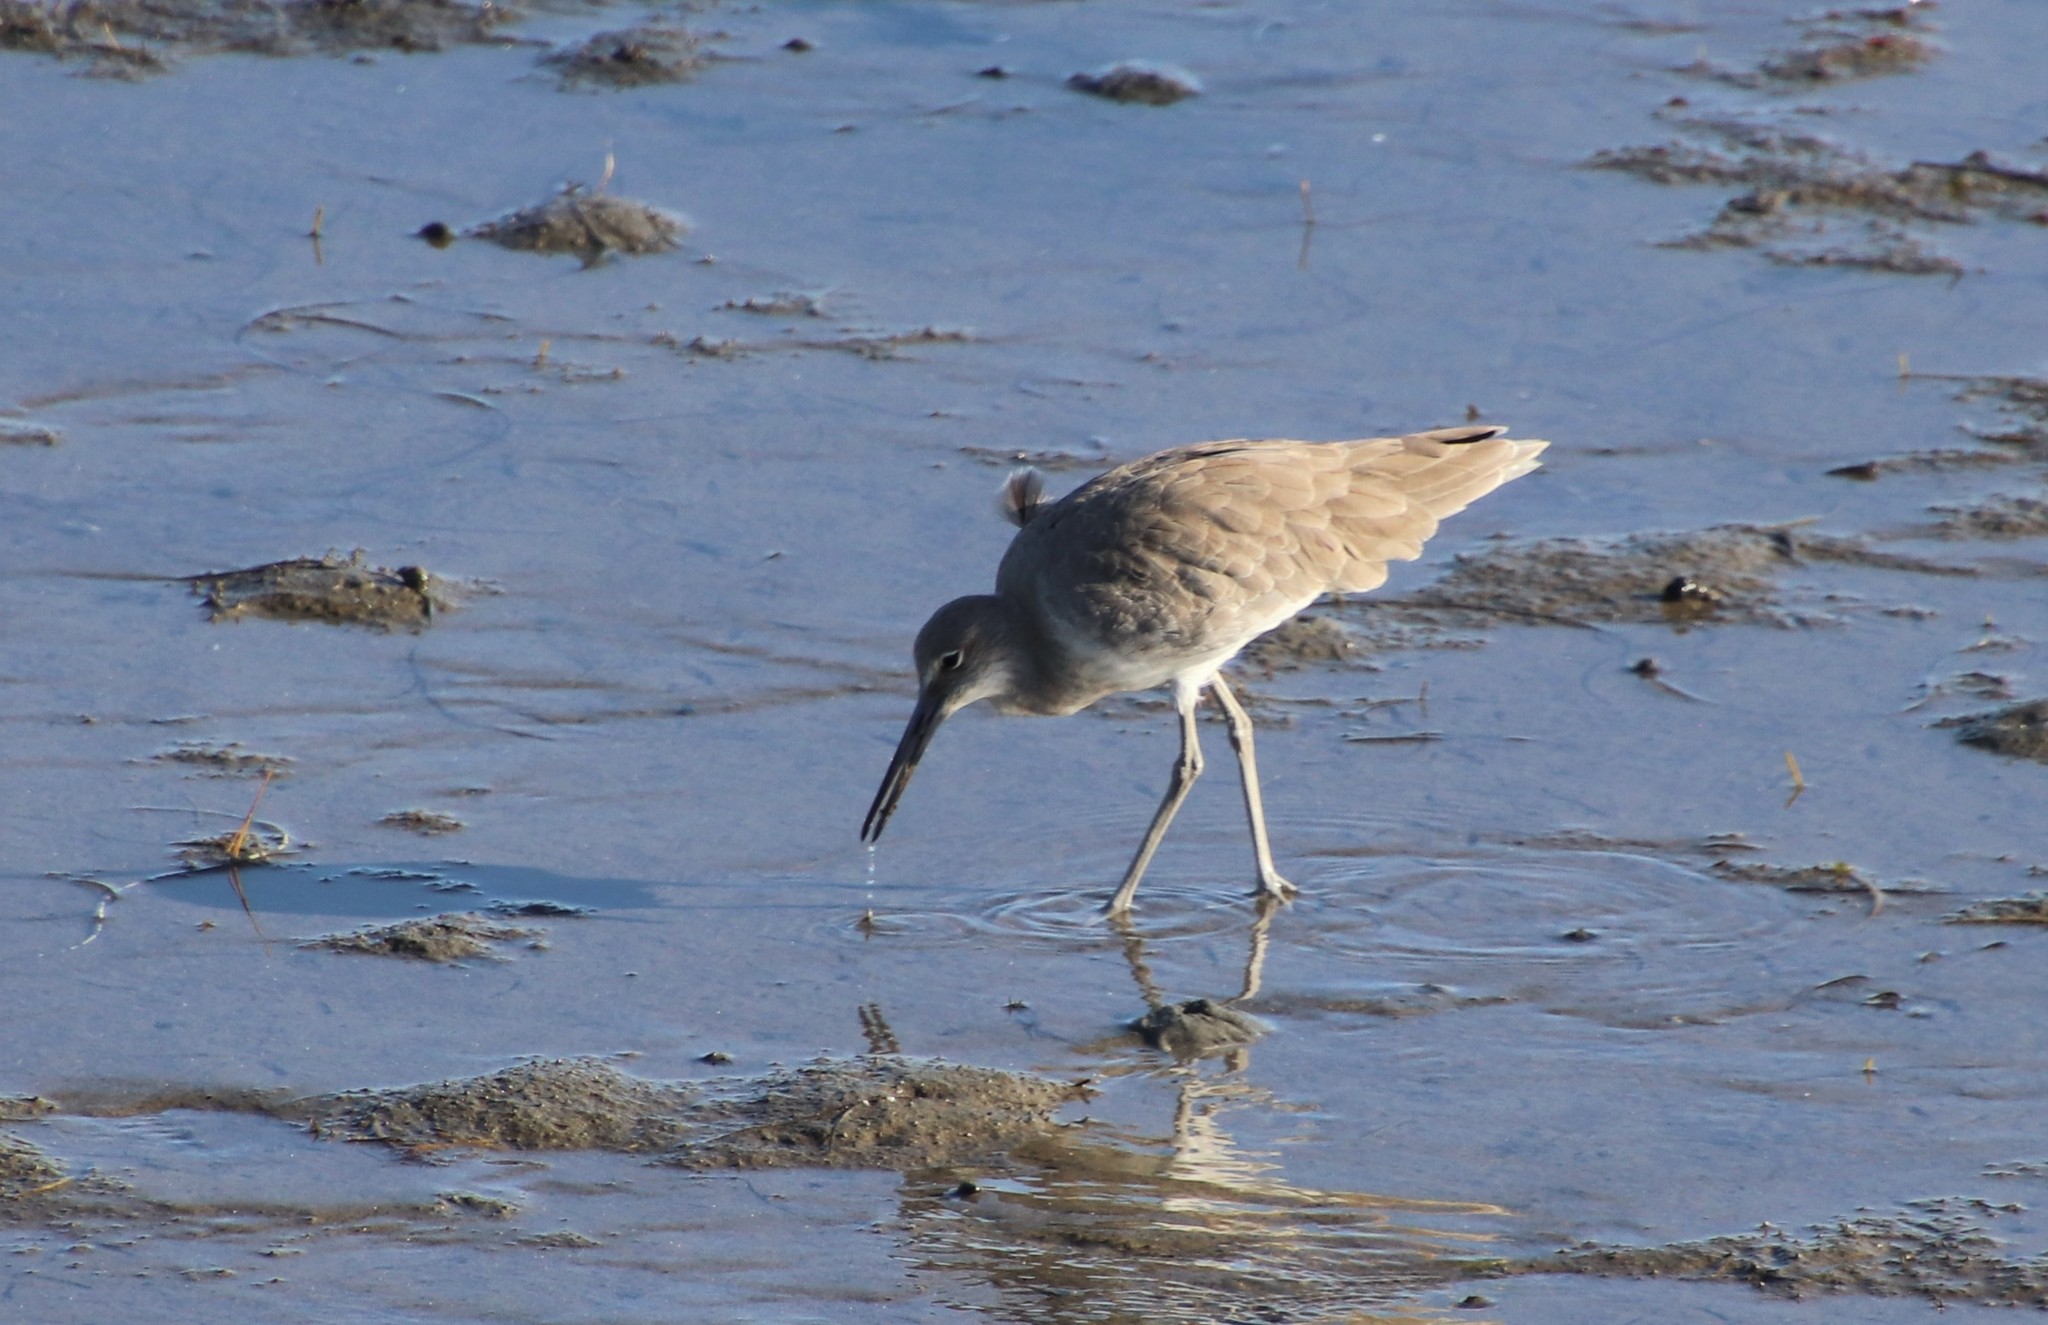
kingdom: Animalia
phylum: Chordata
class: Aves
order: Charadriiformes
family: Scolopacidae
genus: Tringa
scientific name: Tringa semipalmata
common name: Willet
